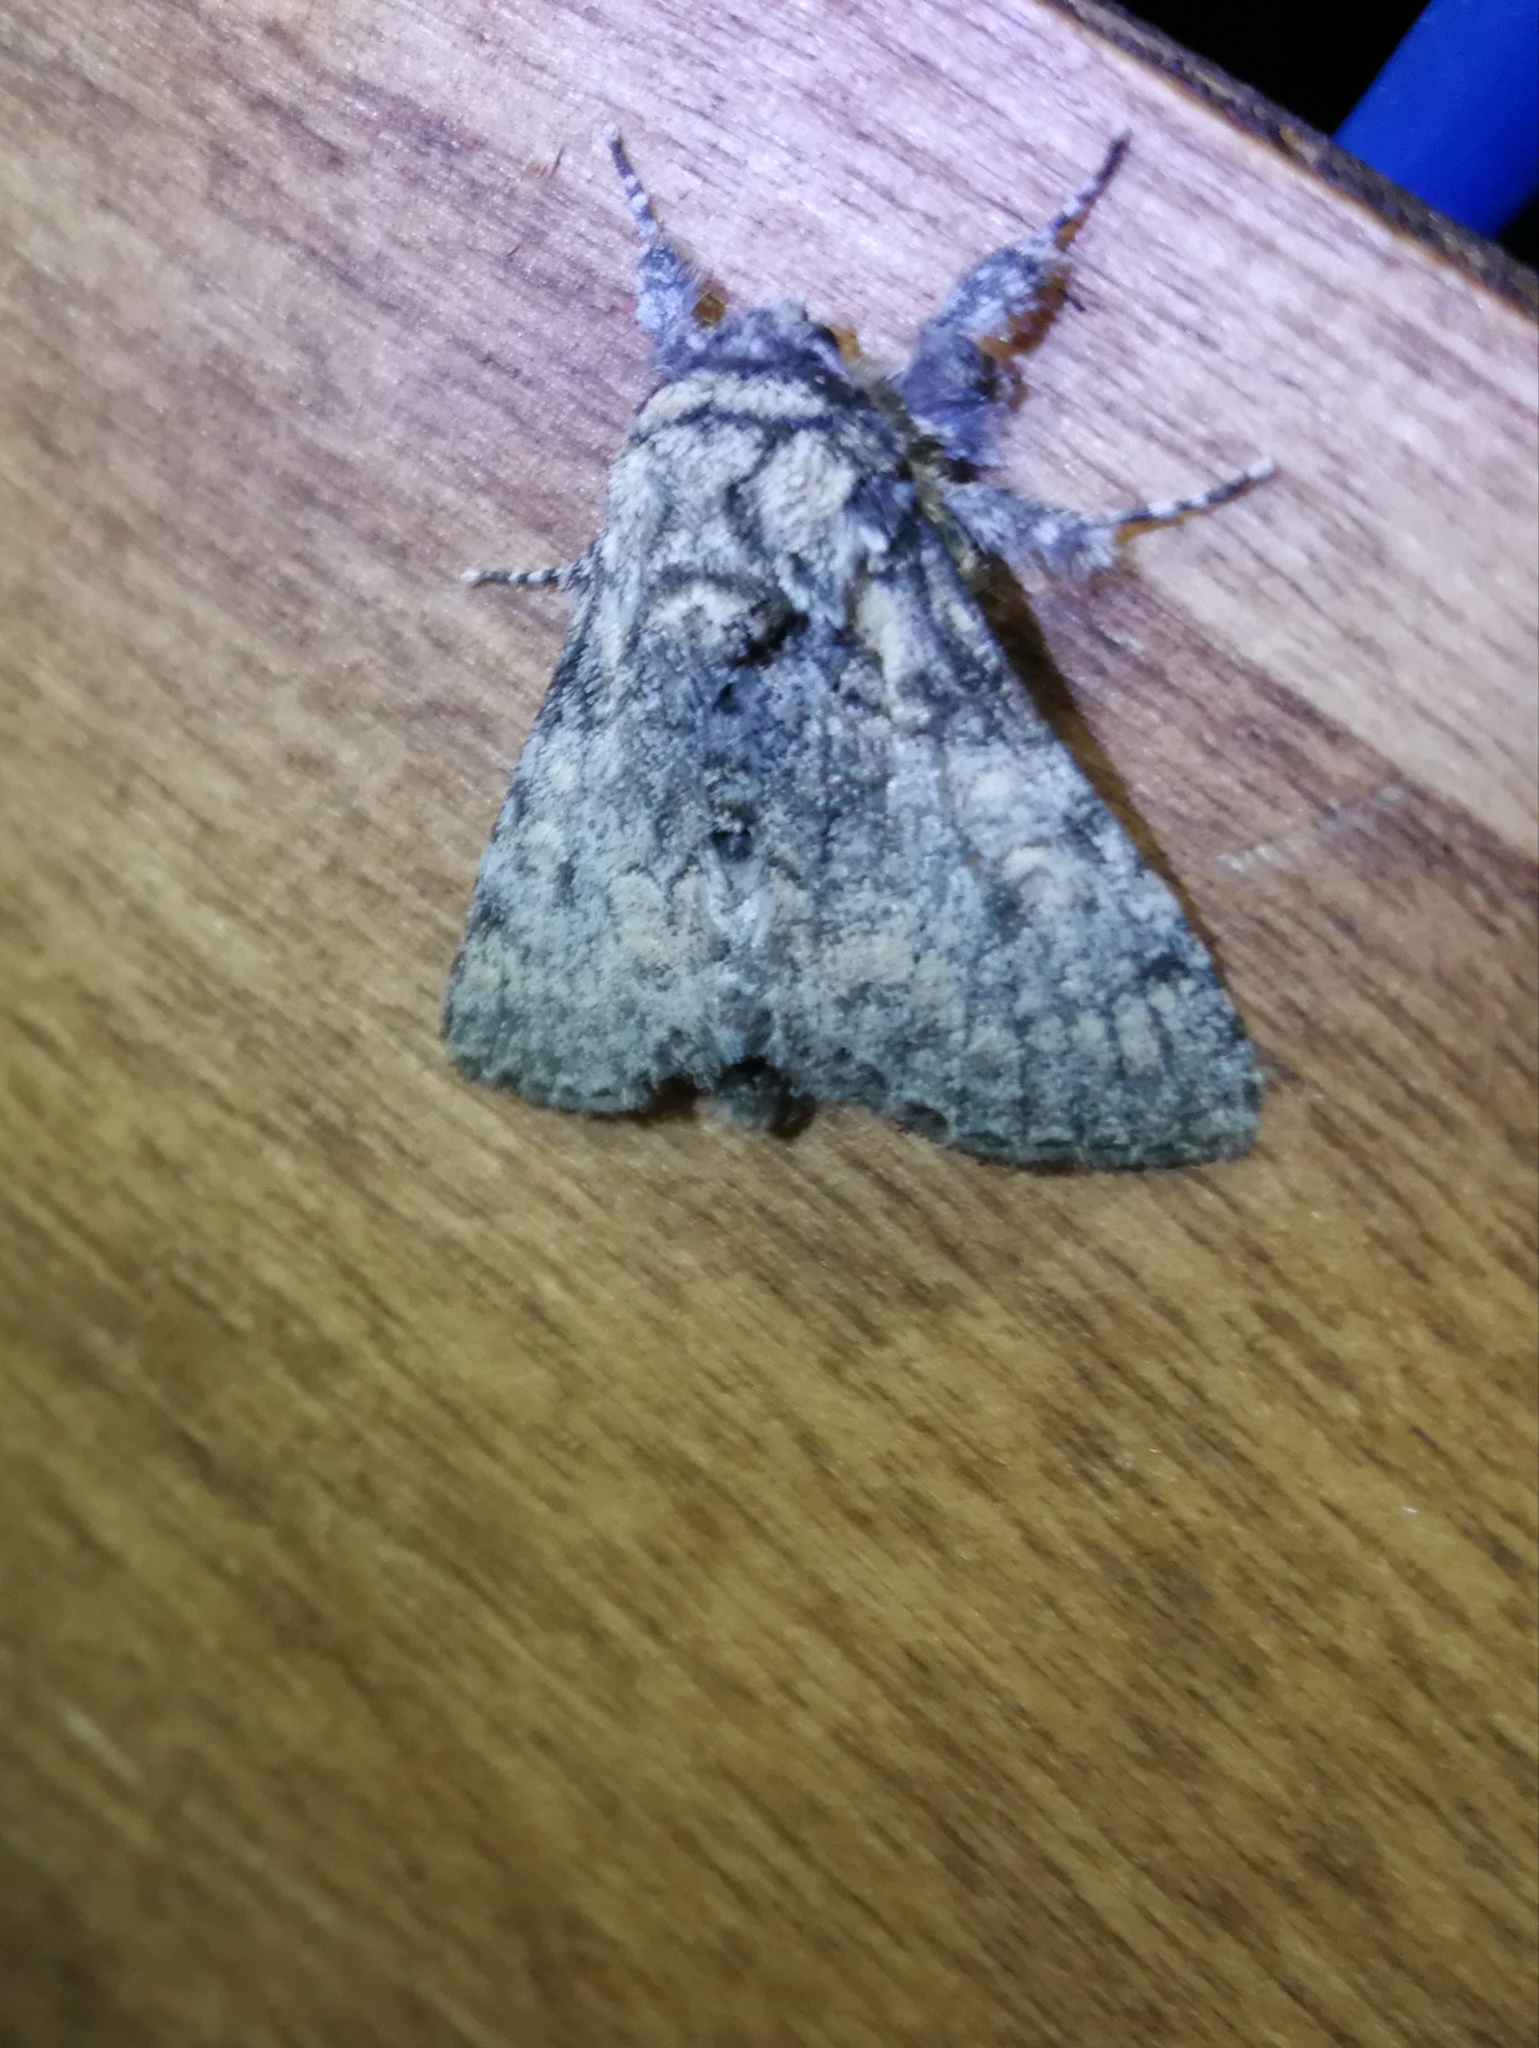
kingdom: Animalia
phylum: Arthropoda
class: Insecta
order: Lepidoptera
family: Noctuidae
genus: Raphia
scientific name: Raphia hybris
